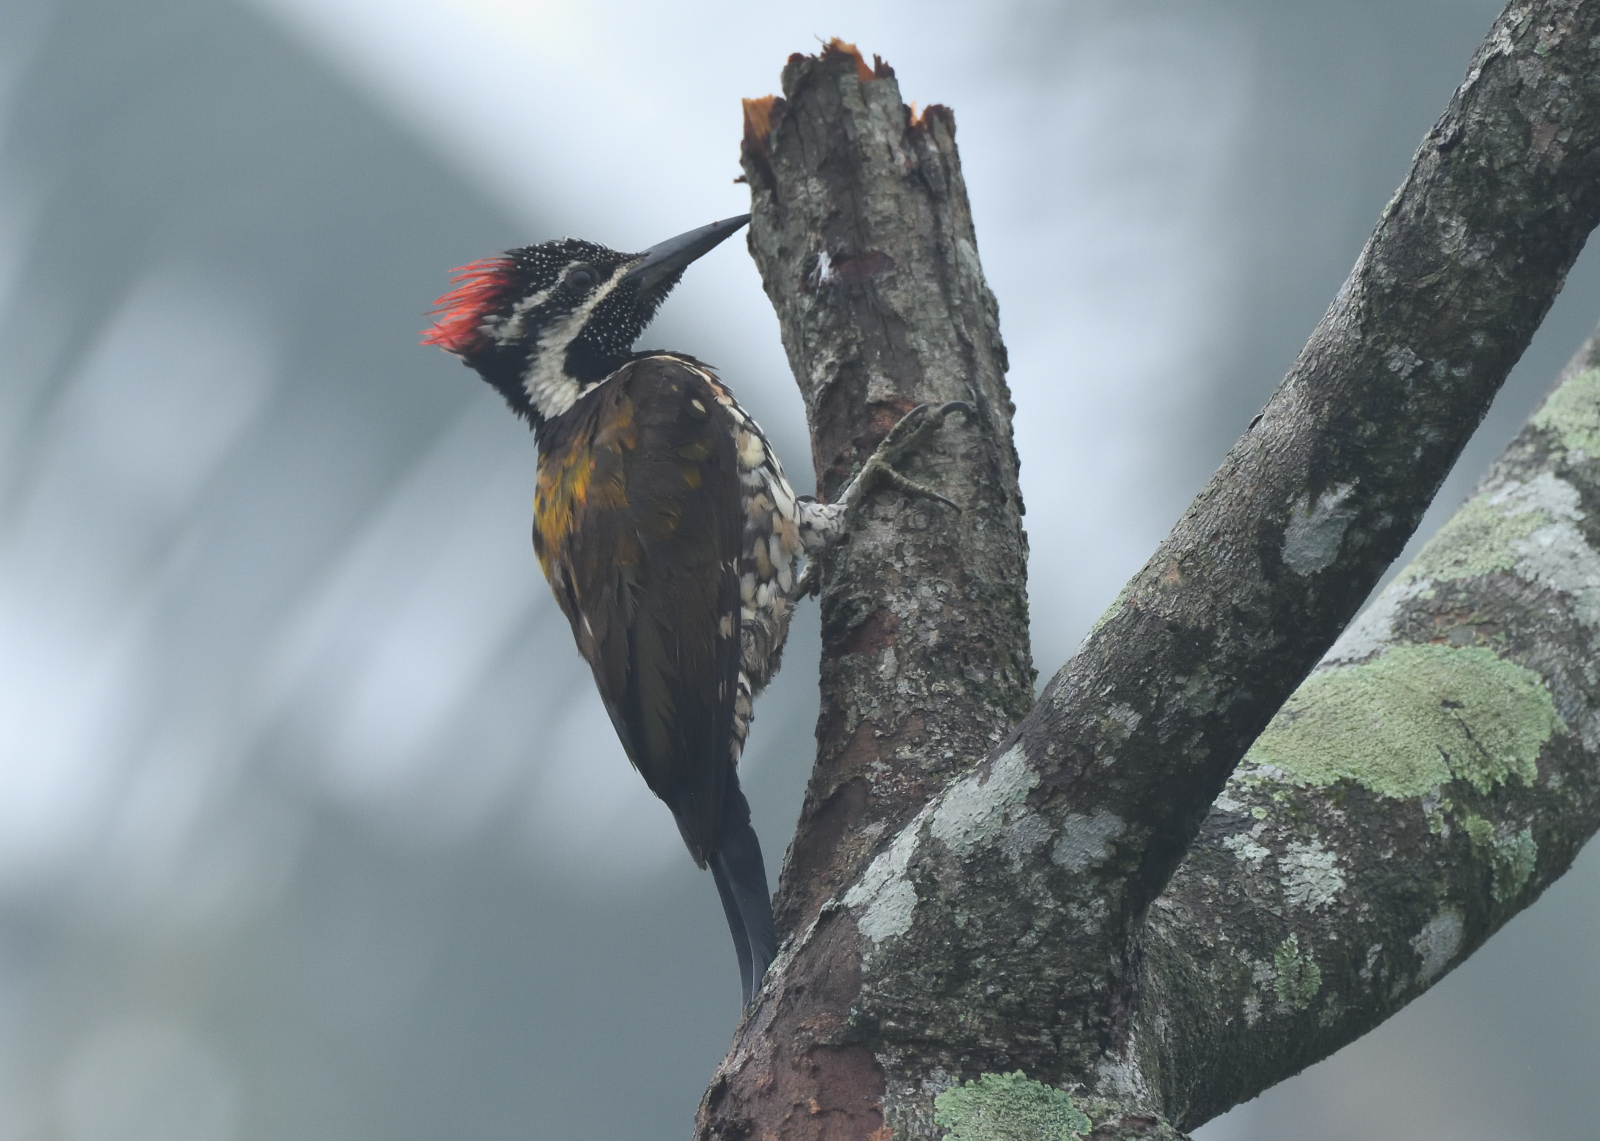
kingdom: Animalia
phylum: Chordata
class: Aves
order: Piciformes
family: Picidae
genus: Dinopium
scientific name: Dinopium benghalense
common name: Black-rumped flameback
